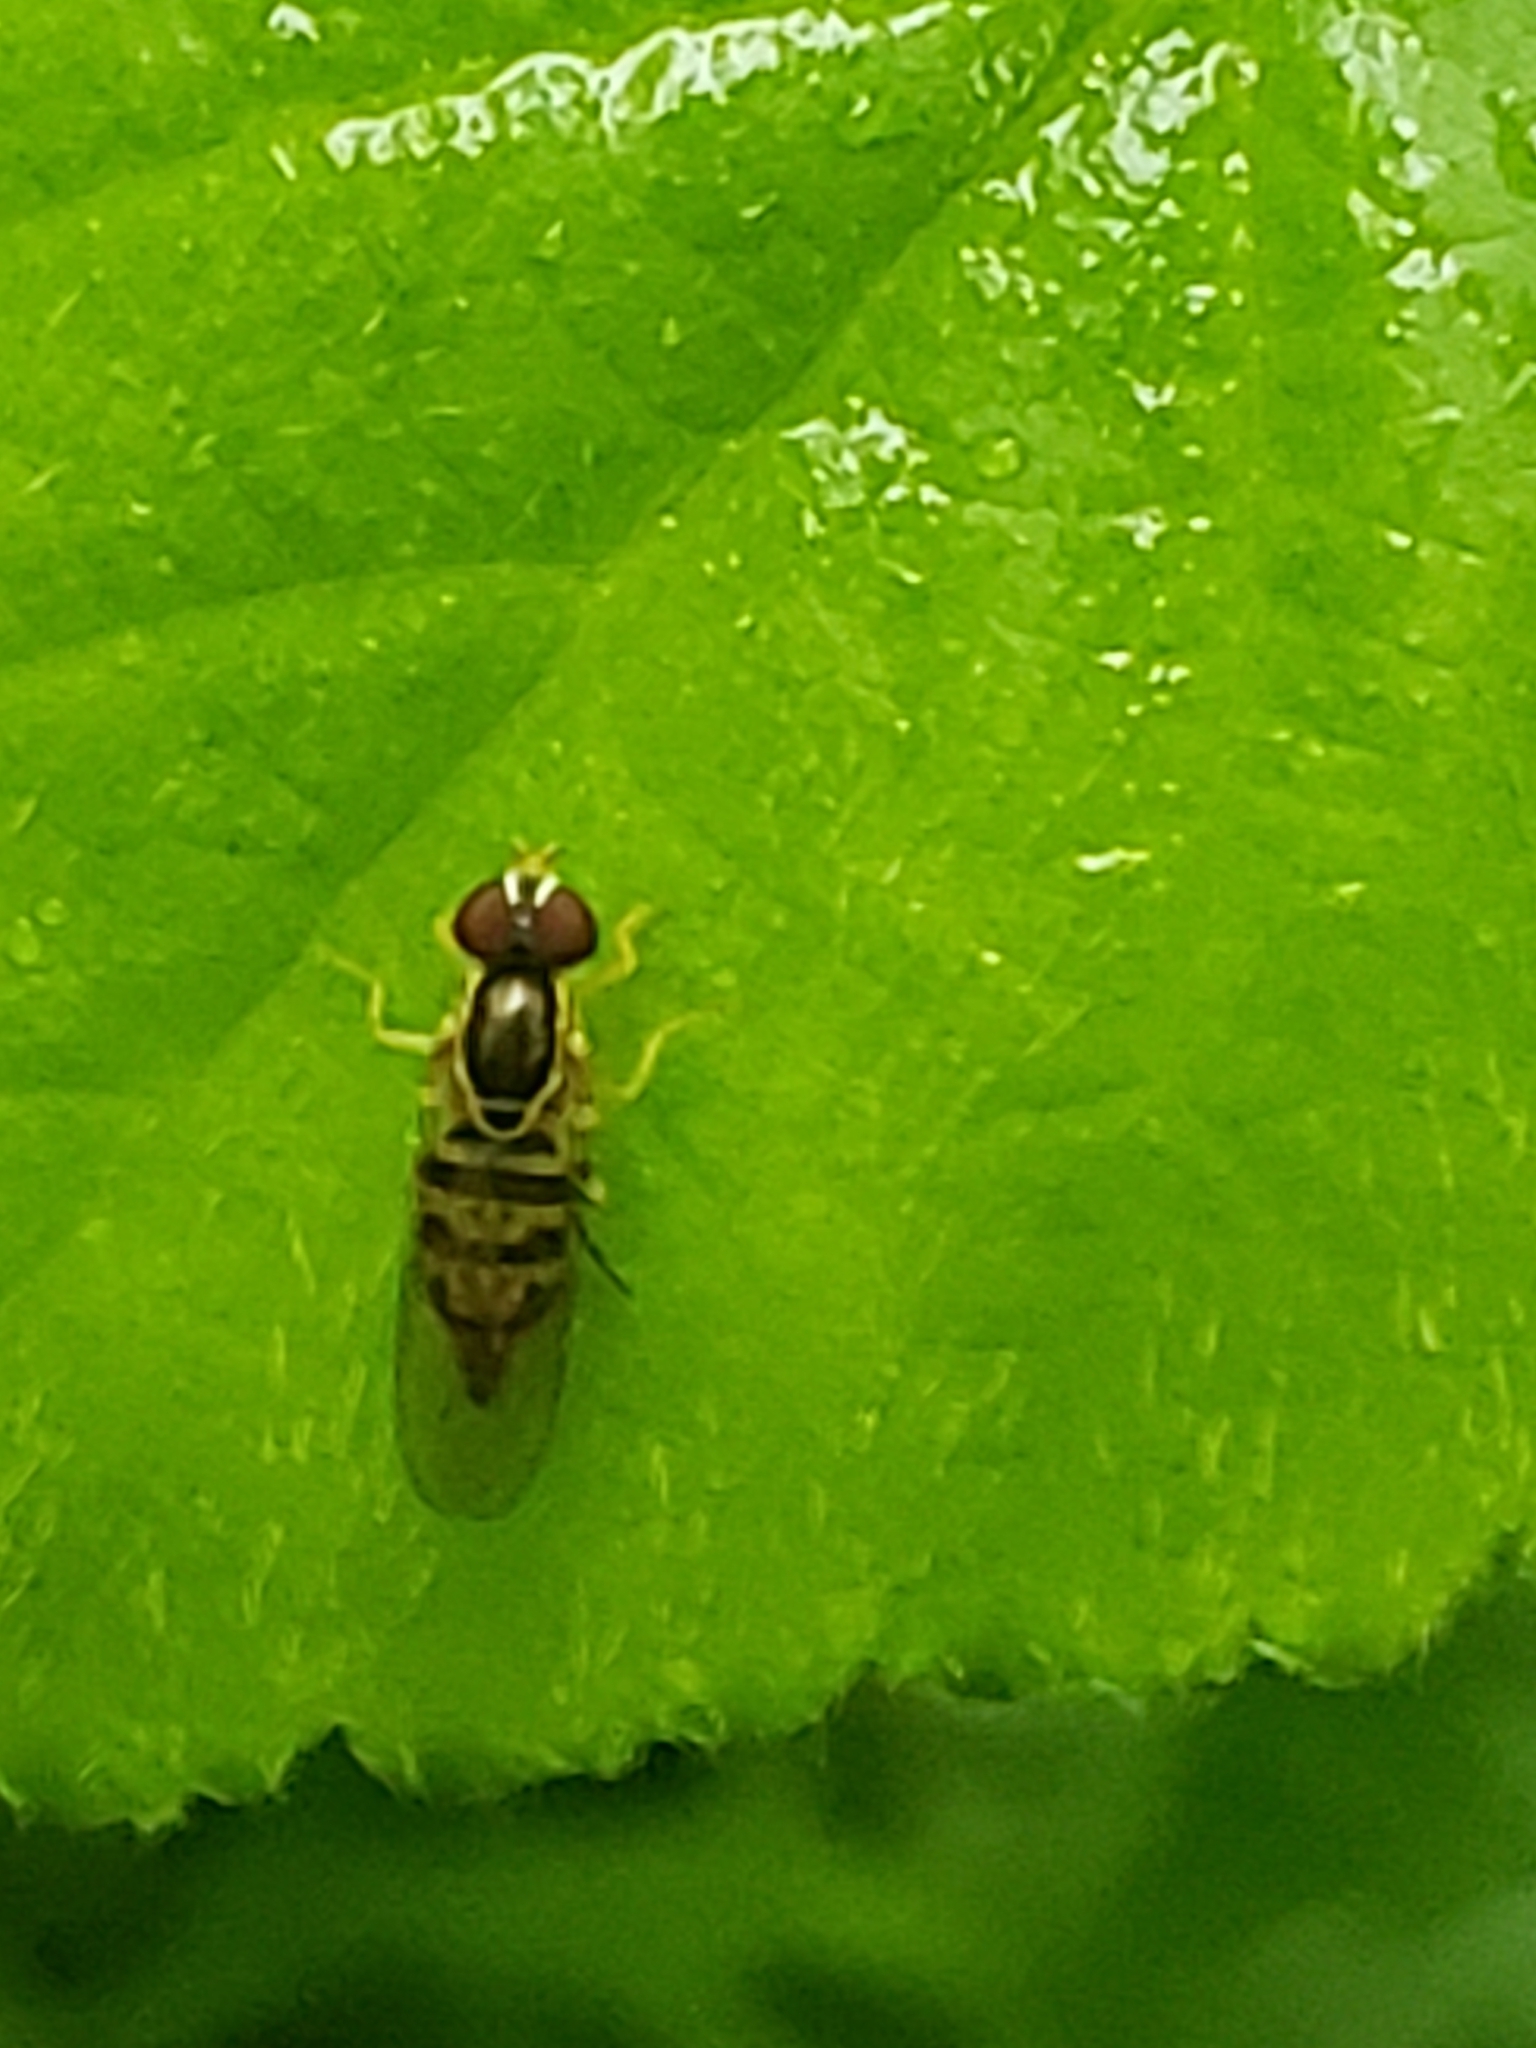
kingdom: Animalia
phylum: Arthropoda
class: Insecta
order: Diptera
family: Syrphidae
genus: Toxomerus
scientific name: Toxomerus geminatus
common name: Eastern calligrapher
